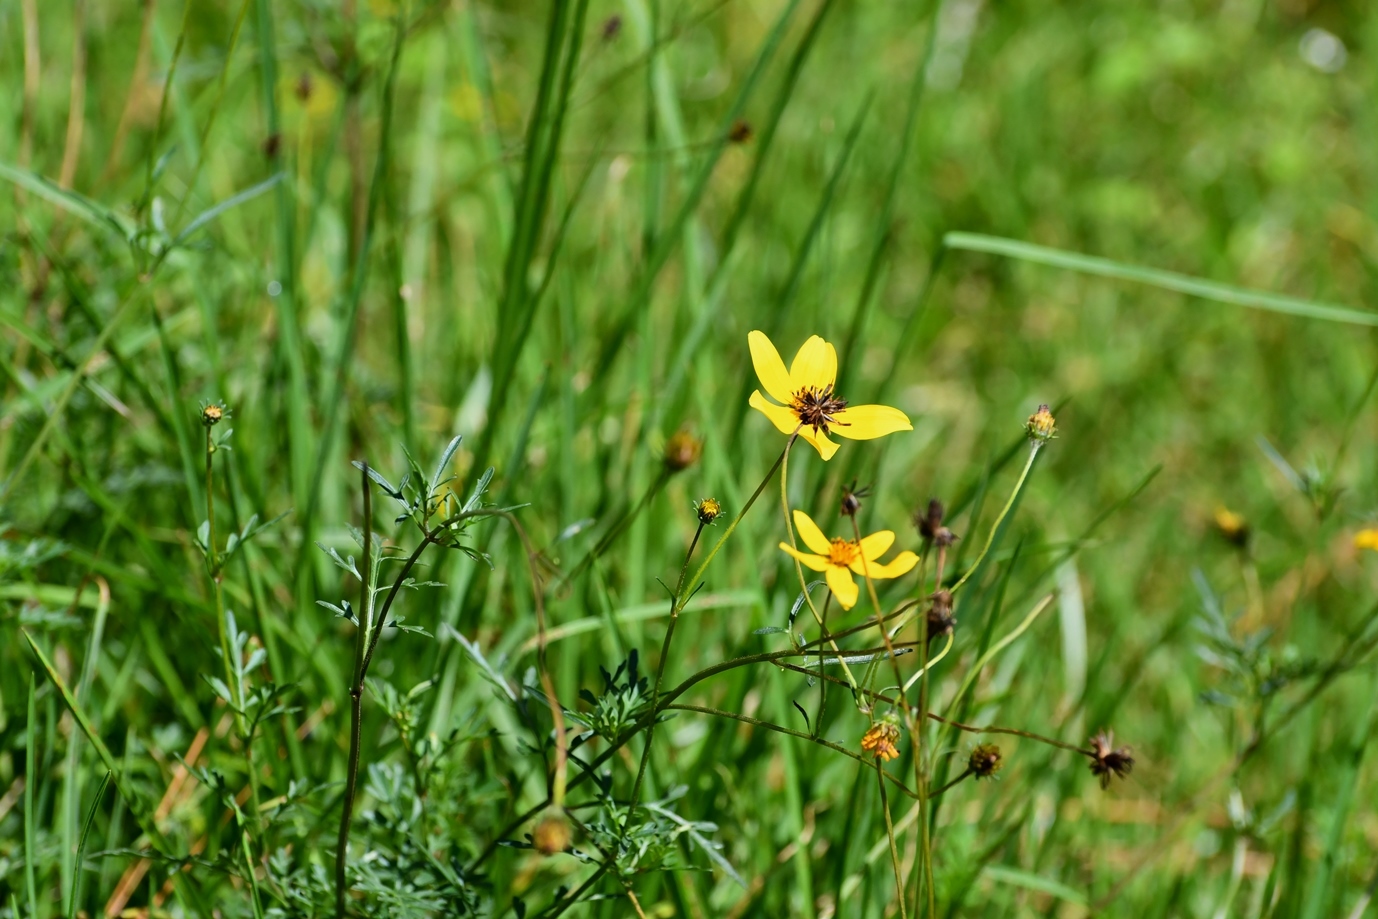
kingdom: Plantae
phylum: Tracheophyta
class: Magnoliopsida
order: Asterales
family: Asteraceae
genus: Bidens
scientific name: Bidens triplinervia
